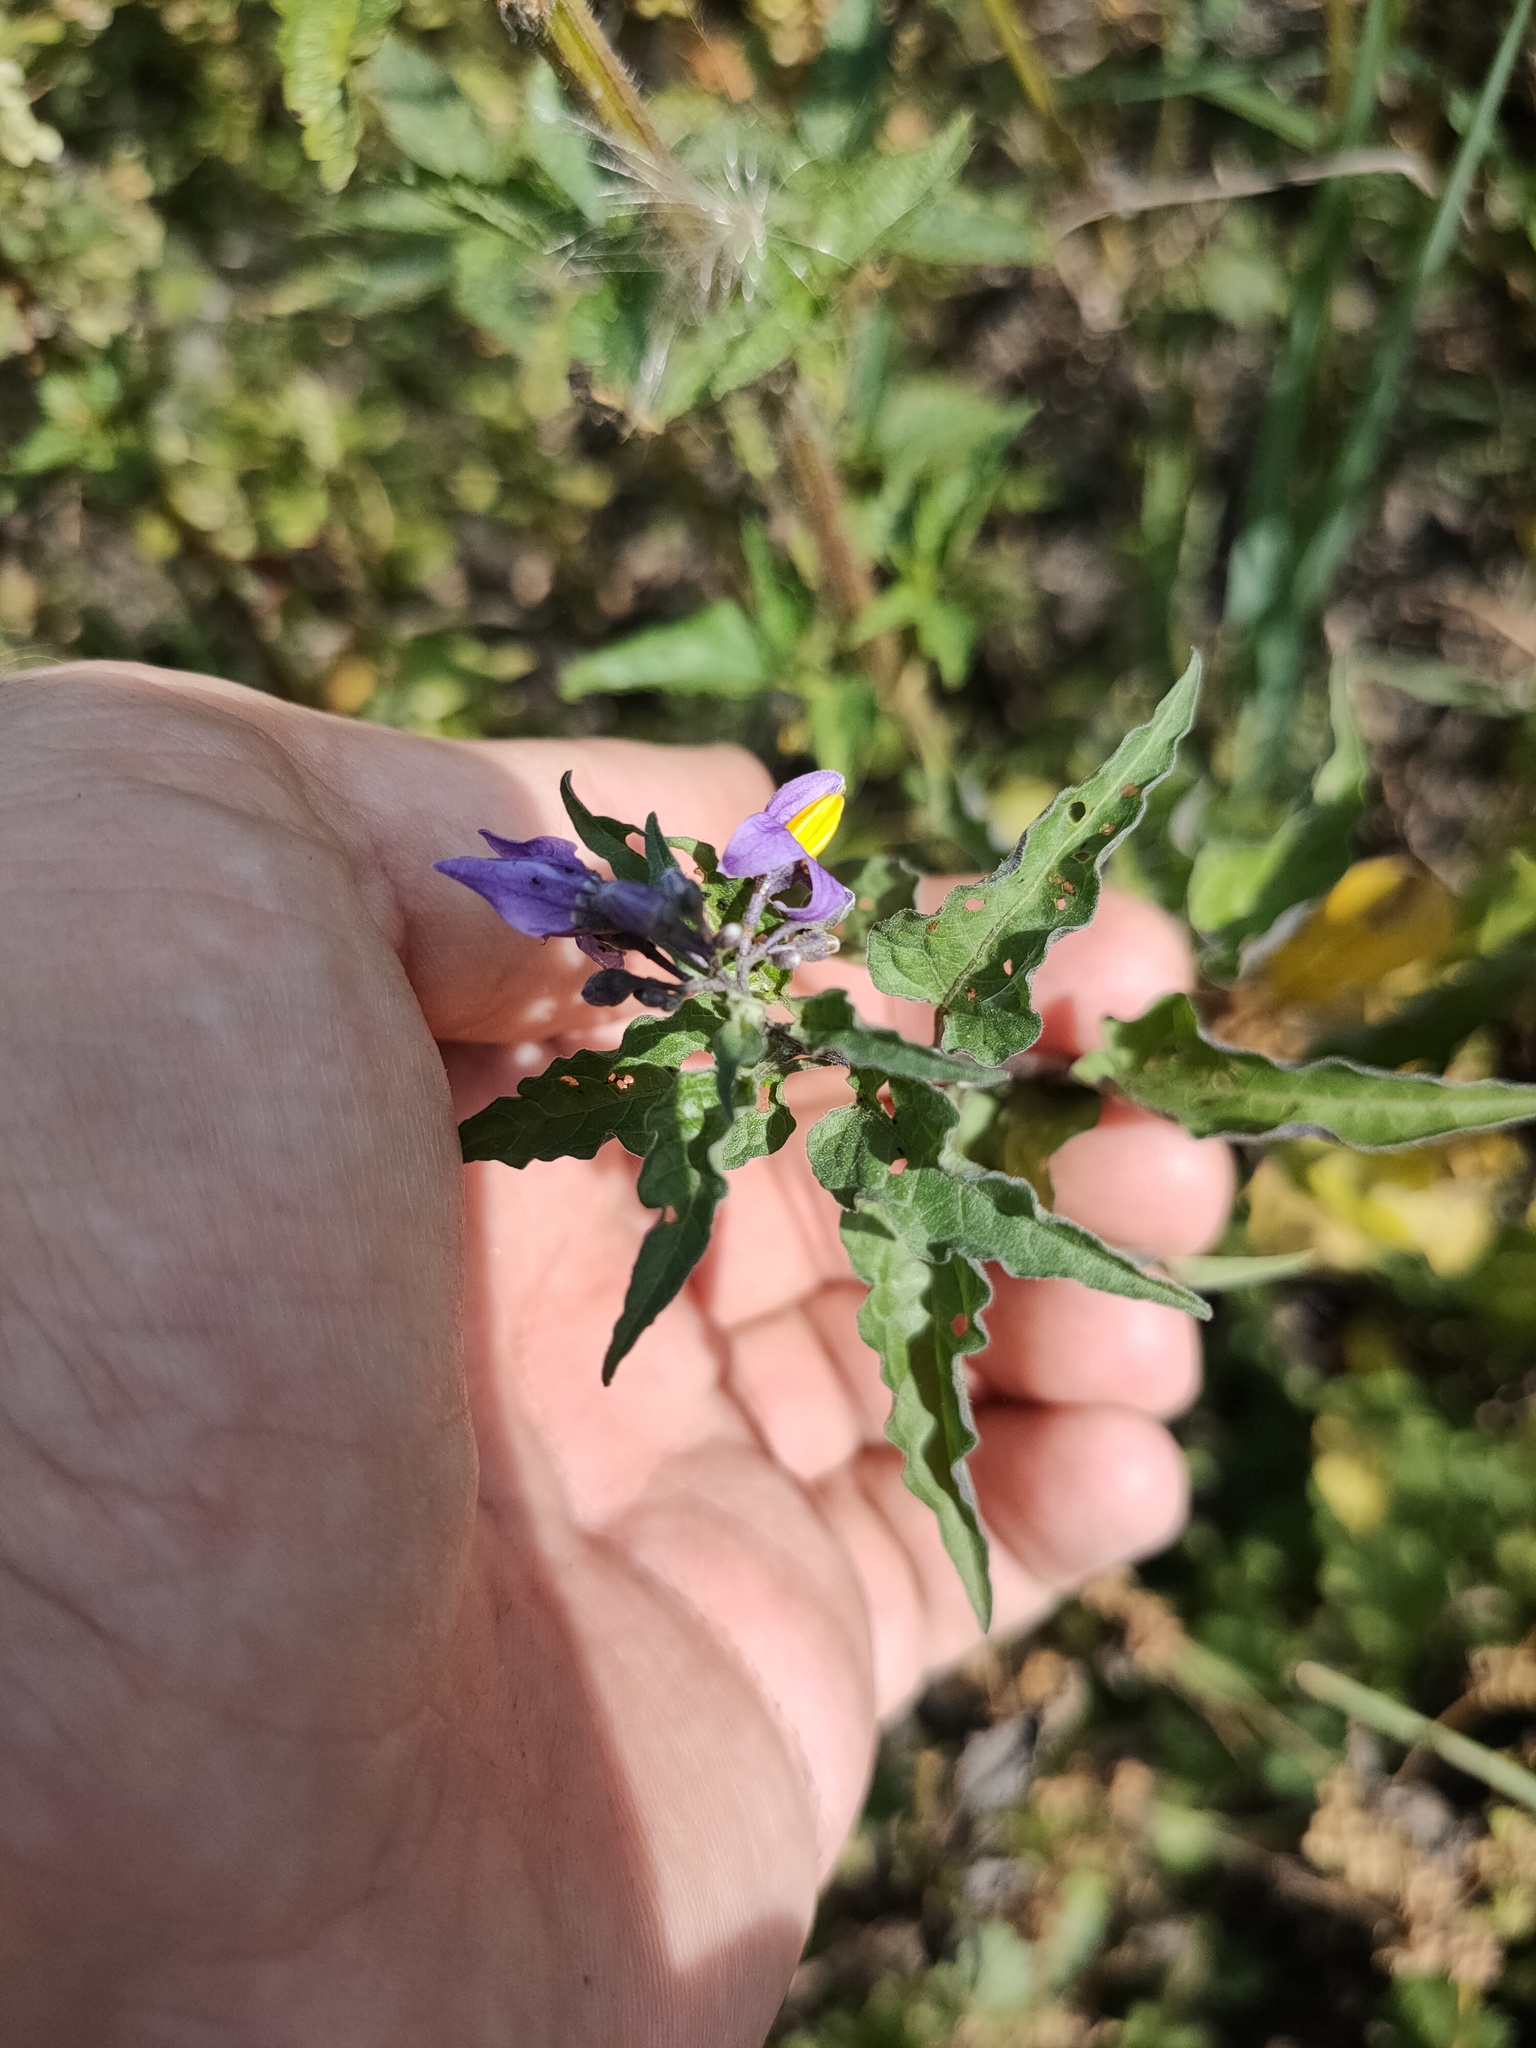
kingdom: Plantae
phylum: Tracheophyta
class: Magnoliopsida
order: Solanales
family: Solanaceae
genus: Solanum
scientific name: Solanum dulcamara
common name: Climbing nightshade
